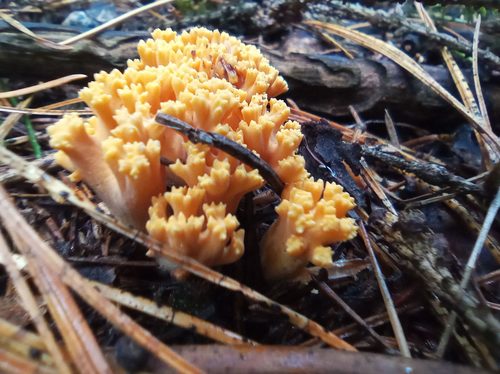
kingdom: Fungi
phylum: Basidiomycota
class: Agaricomycetes
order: Gomphales
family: Gomphaceae
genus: Ramaria
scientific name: Ramaria
